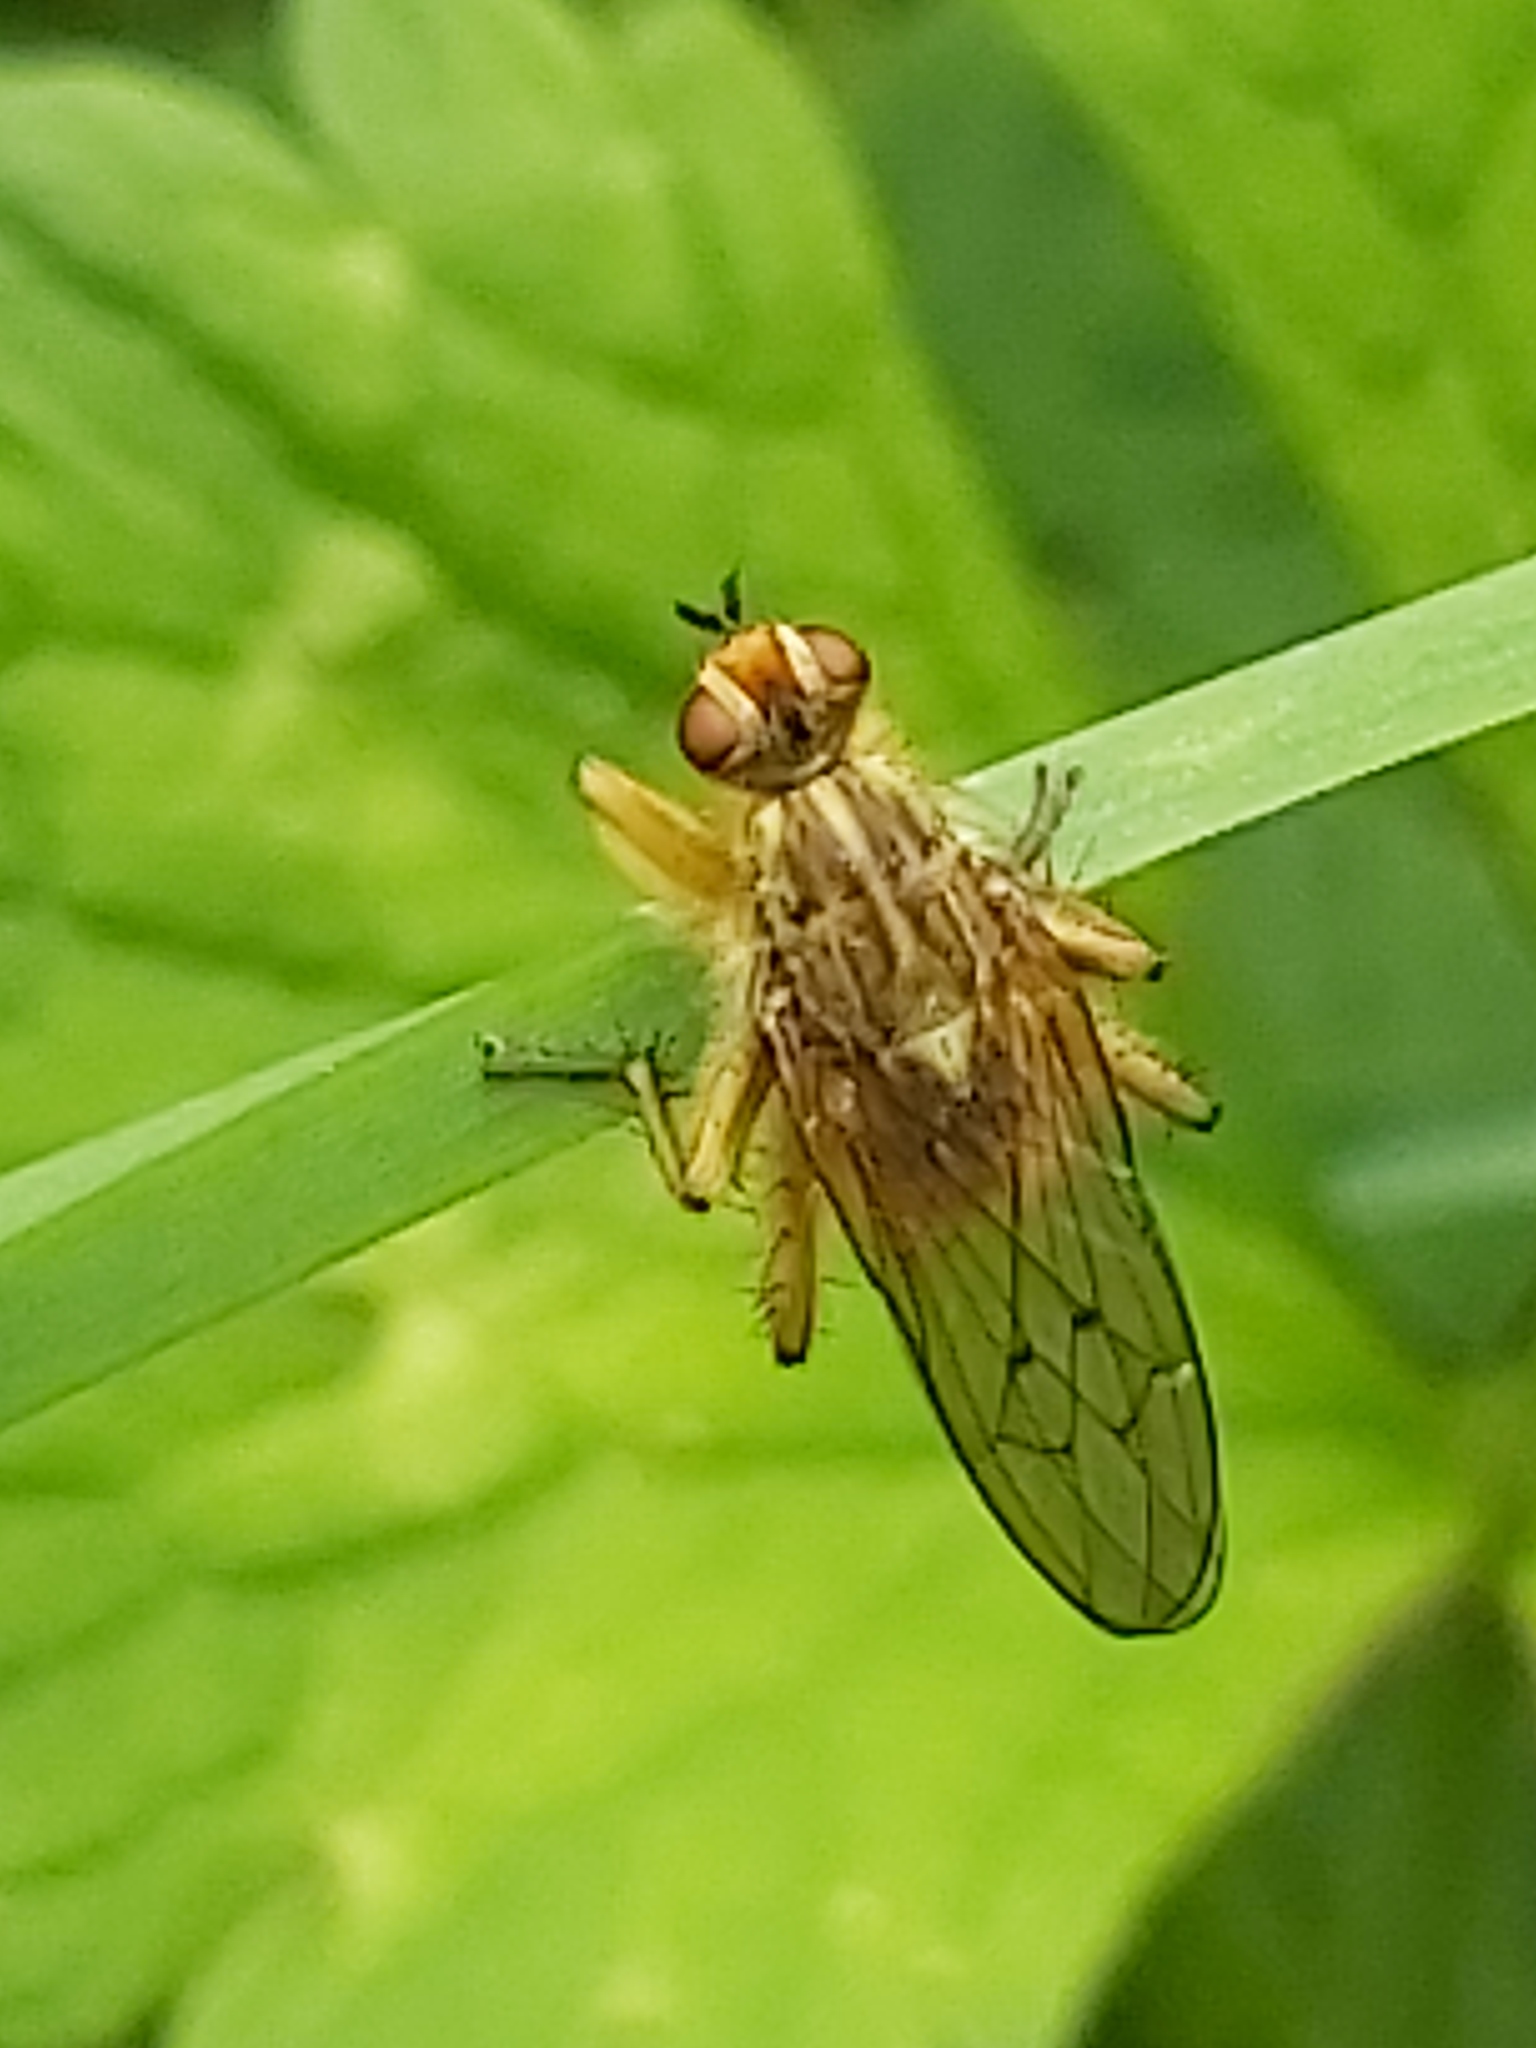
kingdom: Animalia
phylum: Arthropoda
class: Insecta
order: Diptera
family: Scathophagidae
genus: Scathophaga
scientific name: Scathophaga stercoraria
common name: Yellow dung fly
